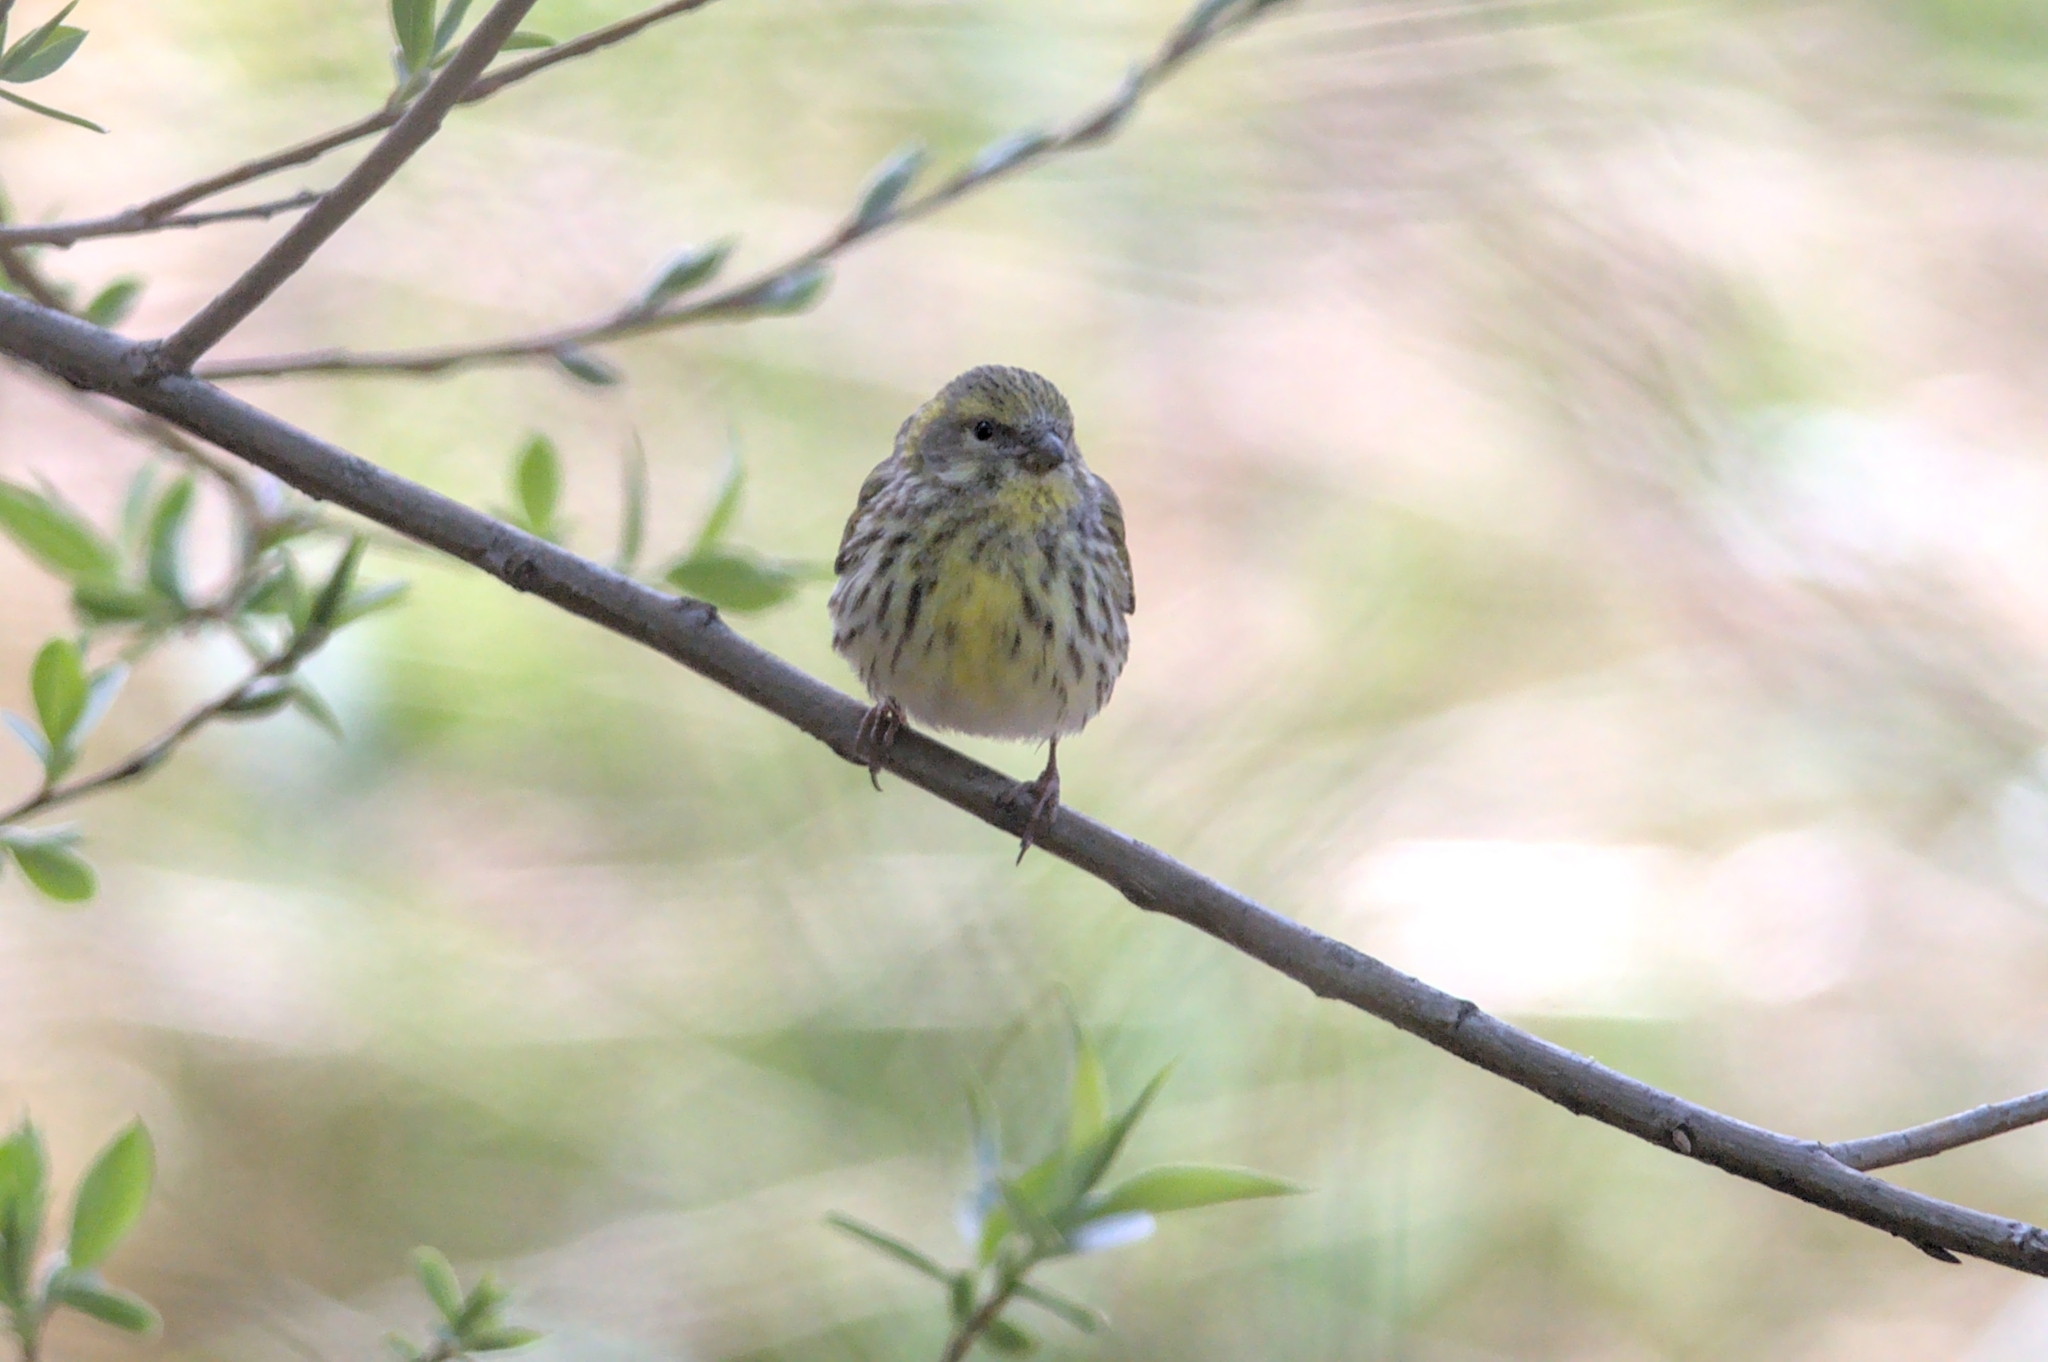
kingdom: Animalia
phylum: Chordata
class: Aves
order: Passeriformes
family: Fringillidae
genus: Serinus
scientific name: Serinus serinus
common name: European serin
